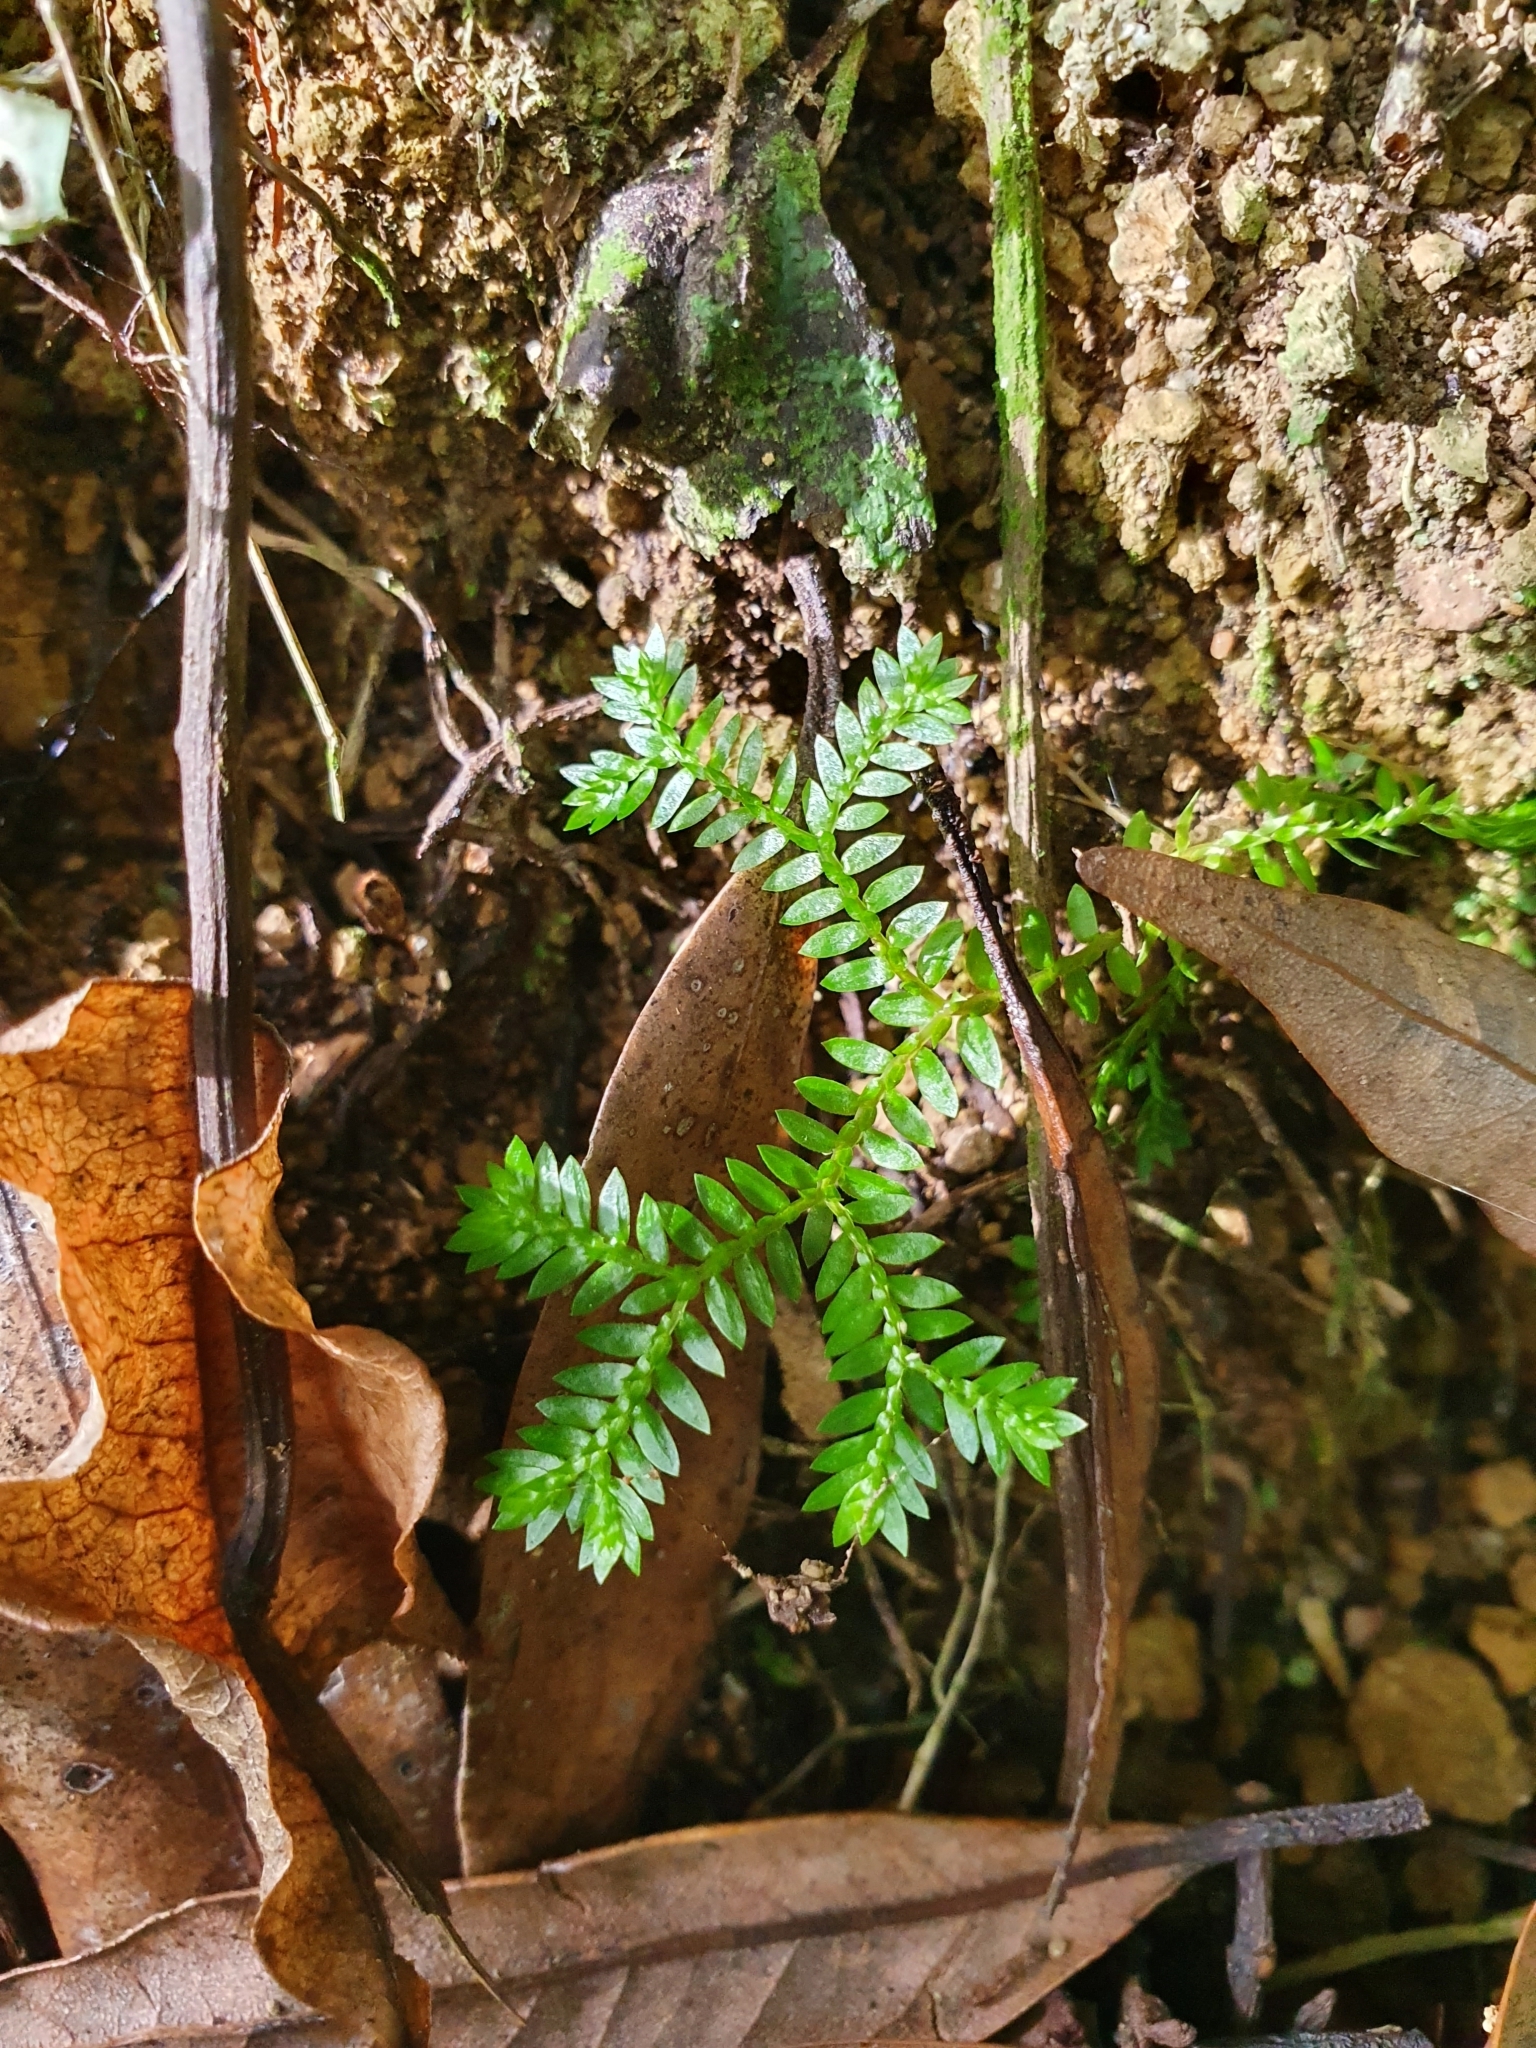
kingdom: Plantae
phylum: Tracheophyta
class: Lycopodiopsida
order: Selaginellales
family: Selaginellaceae
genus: Selaginella
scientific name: Selaginella kraussiana
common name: Krauss' spikemoss
